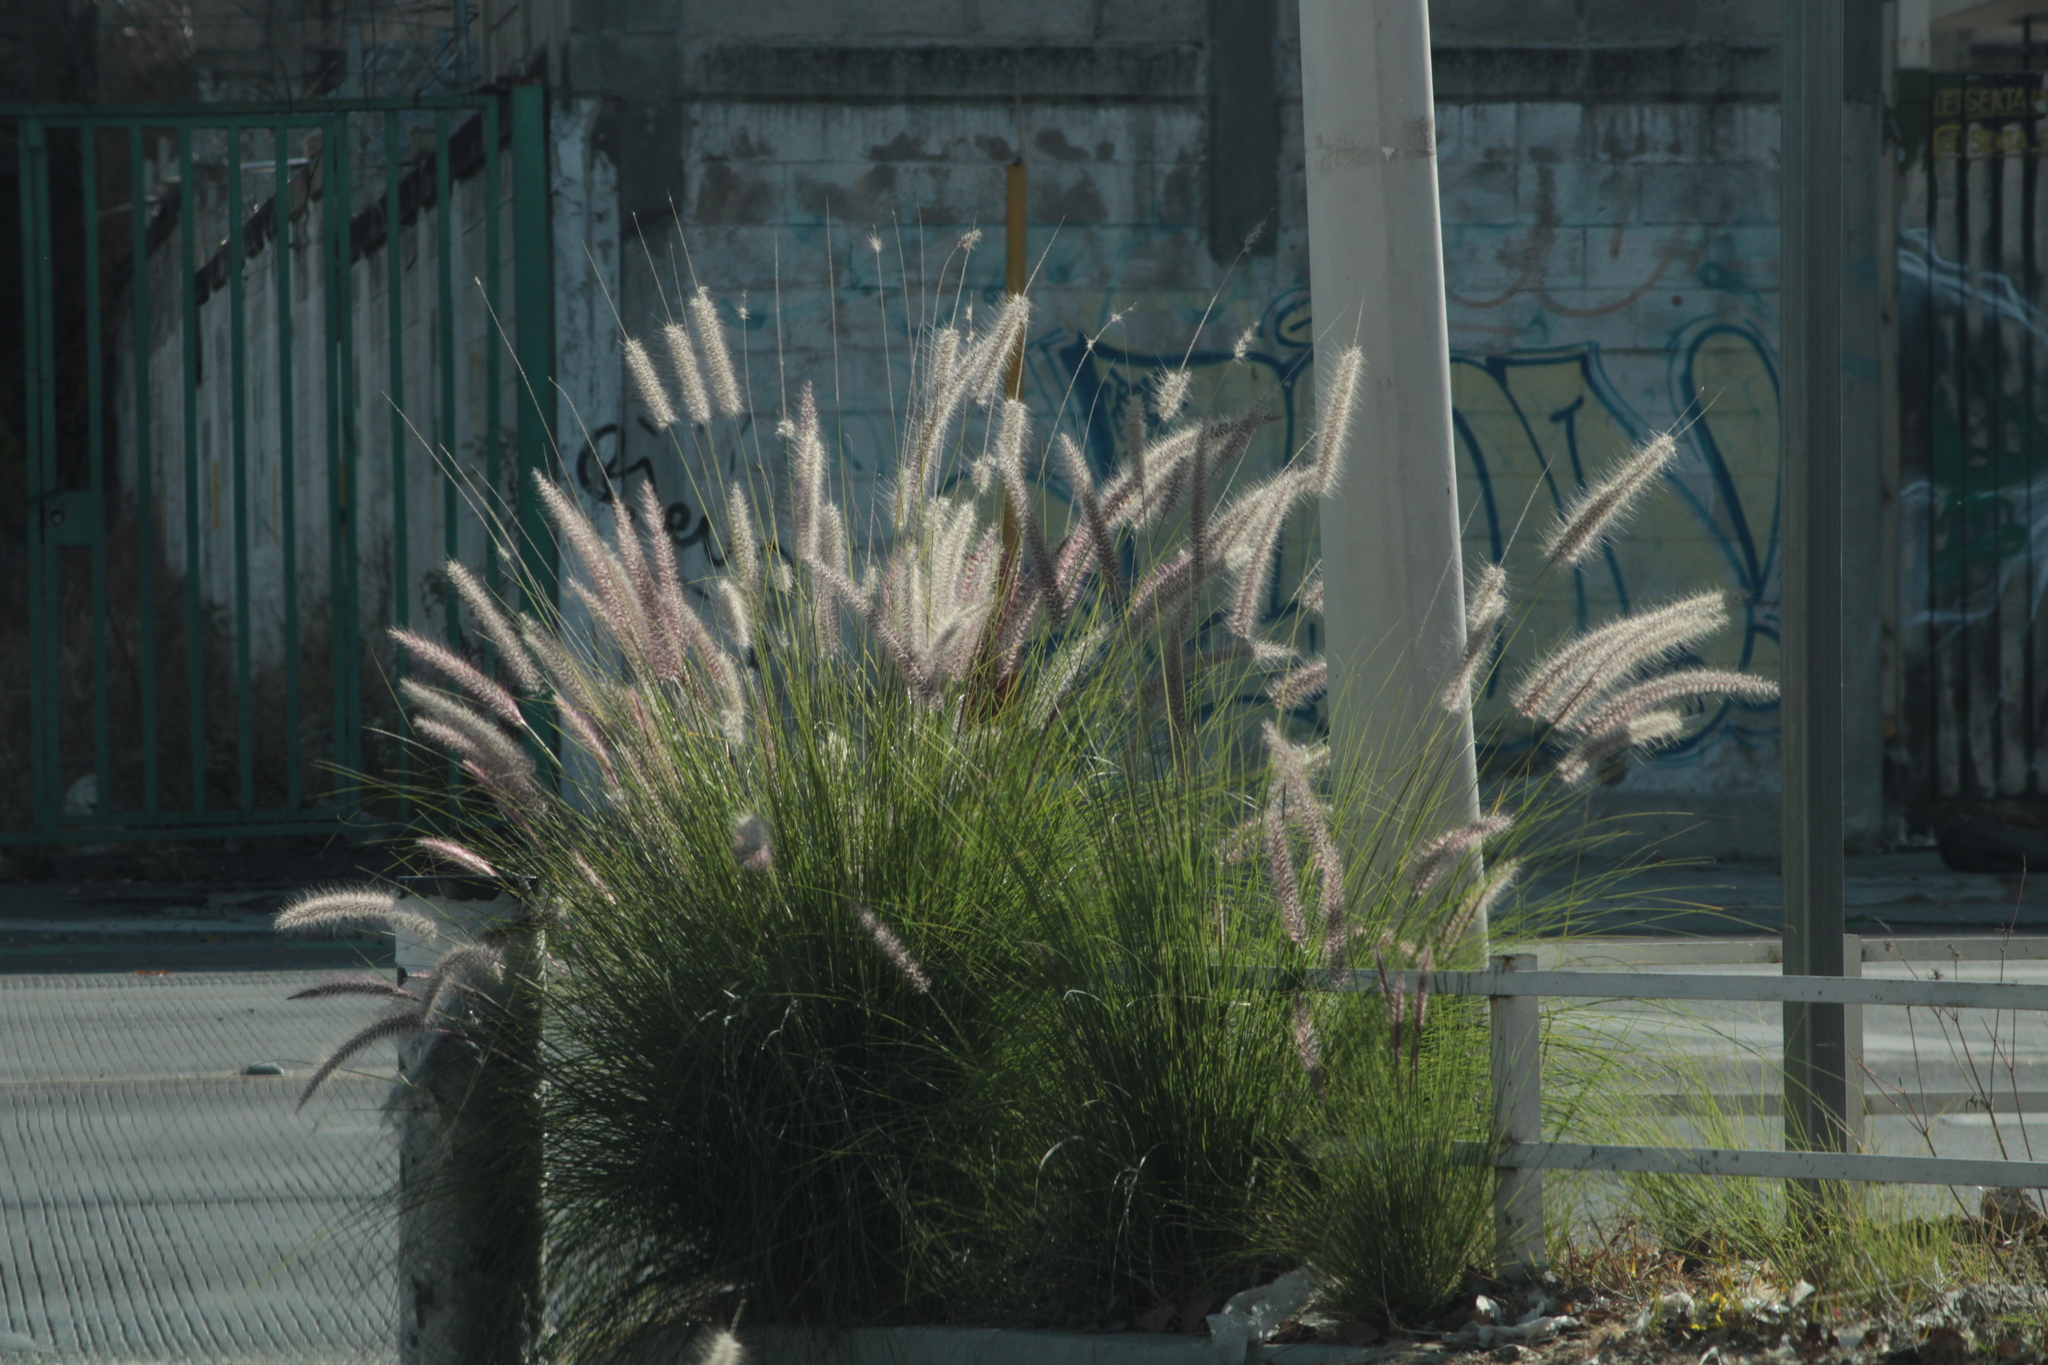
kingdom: Plantae
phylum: Tracheophyta
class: Liliopsida
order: Poales
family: Poaceae
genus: Cenchrus
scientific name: Cenchrus setaceus
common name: Crimson fountaingrass
